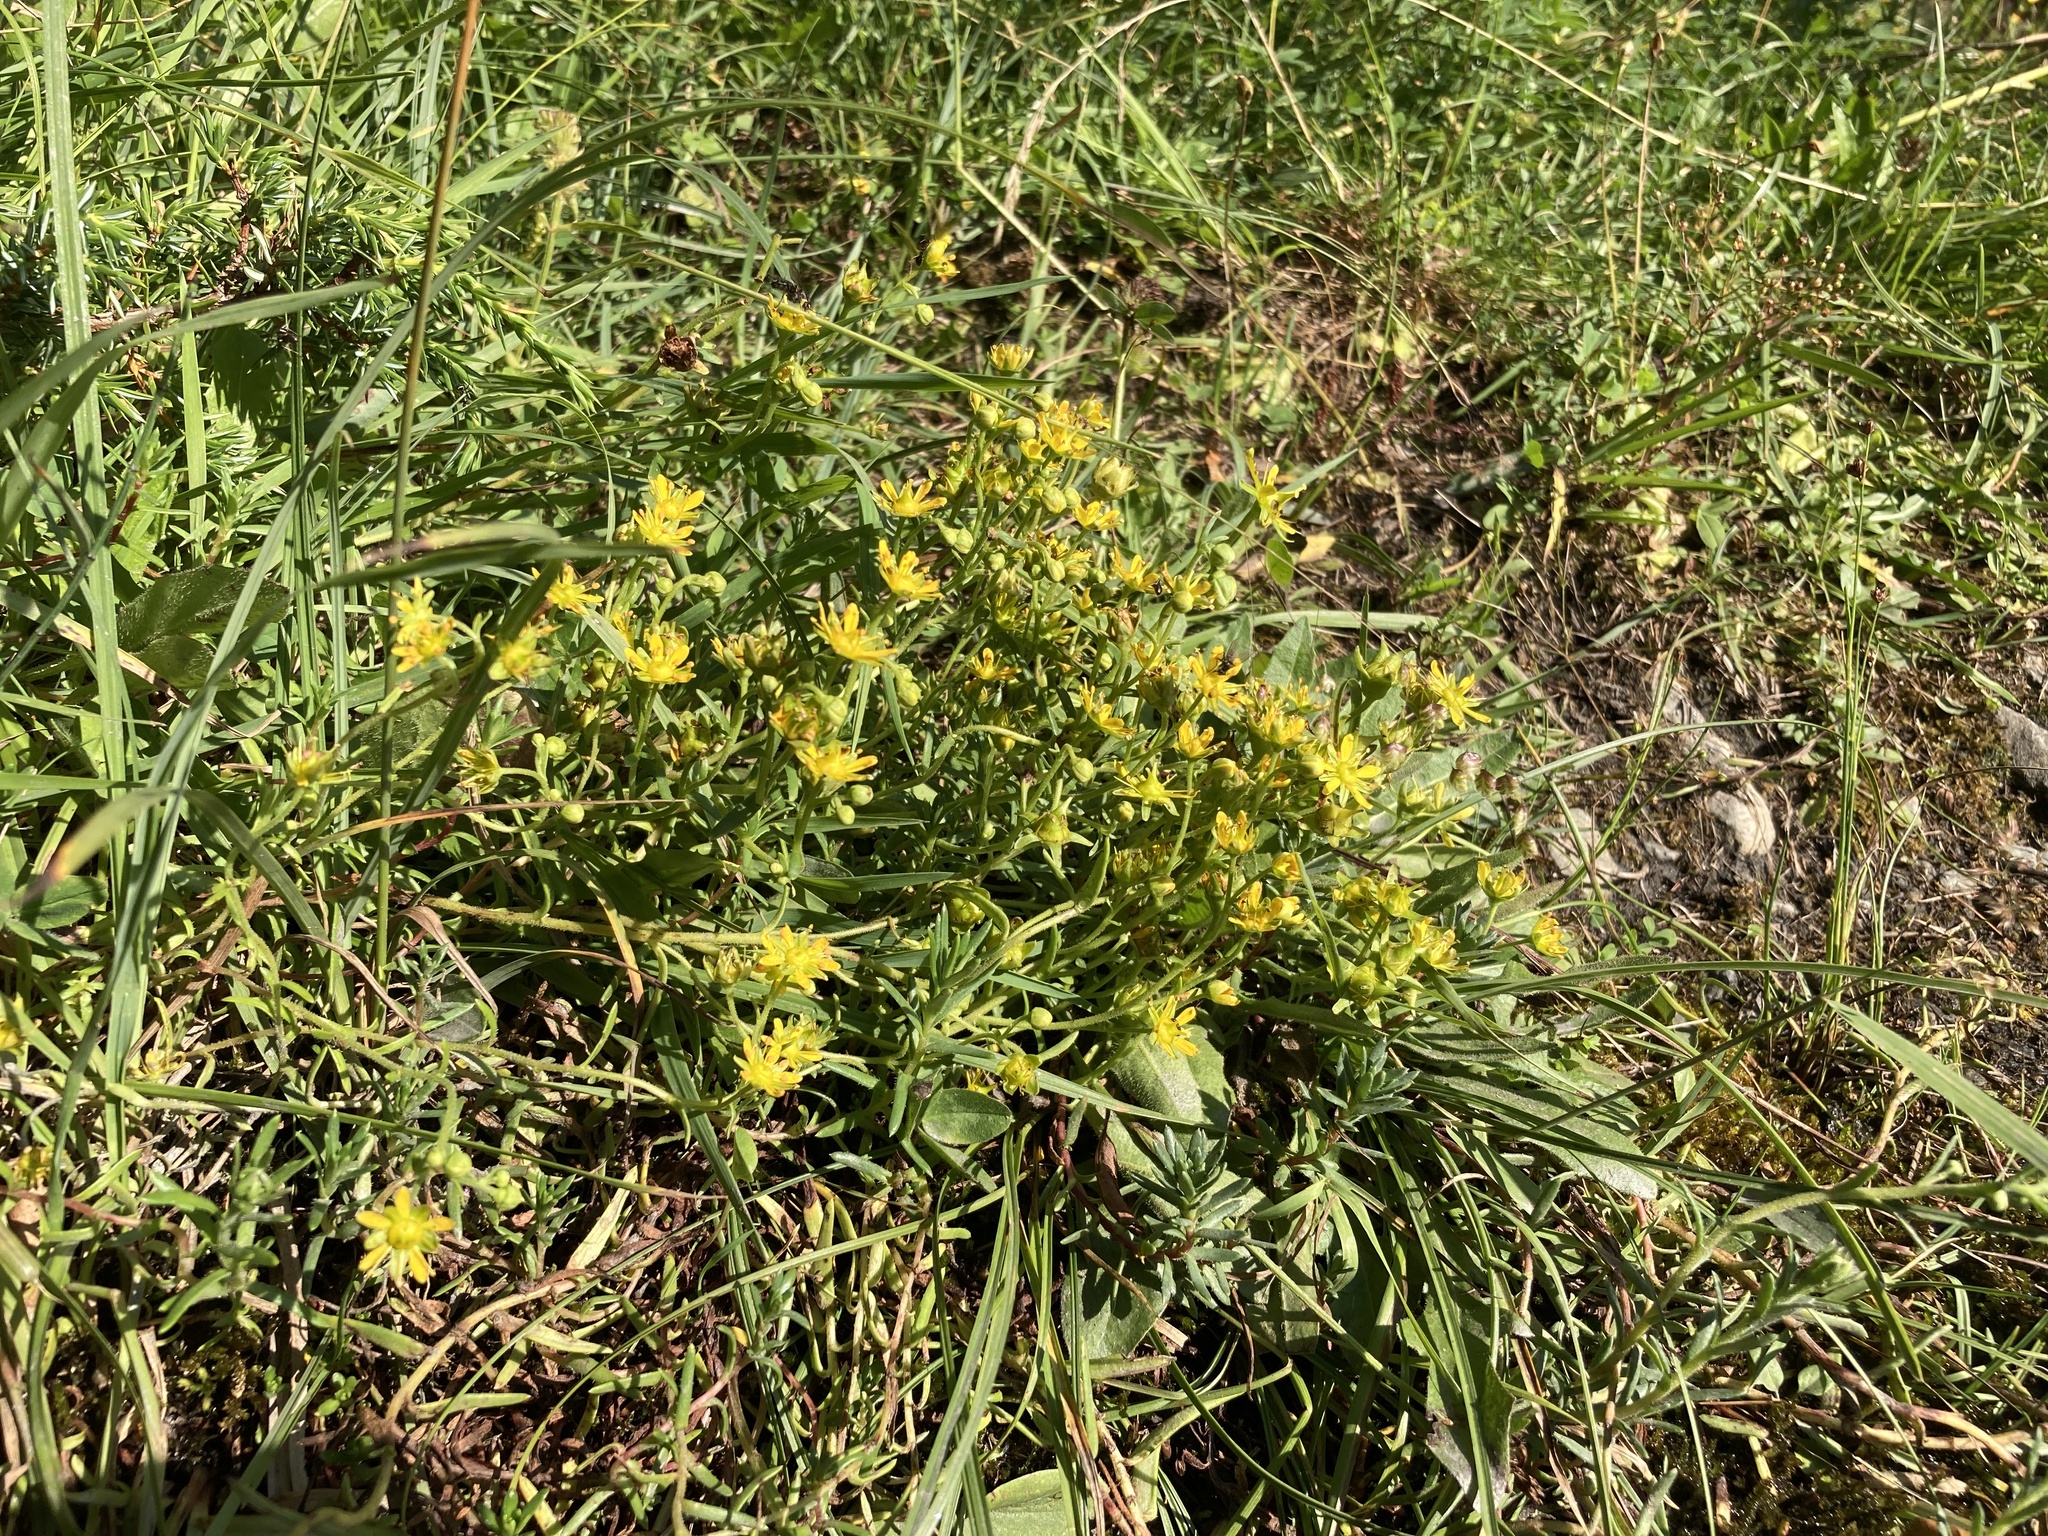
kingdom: Plantae
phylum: Tracheophyta
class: Magnoliopsida
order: Saxifragales
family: Saxifragaceae
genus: Saxifraga
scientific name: Saxifraga aizoides
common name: Yellow mountain saxifrage
